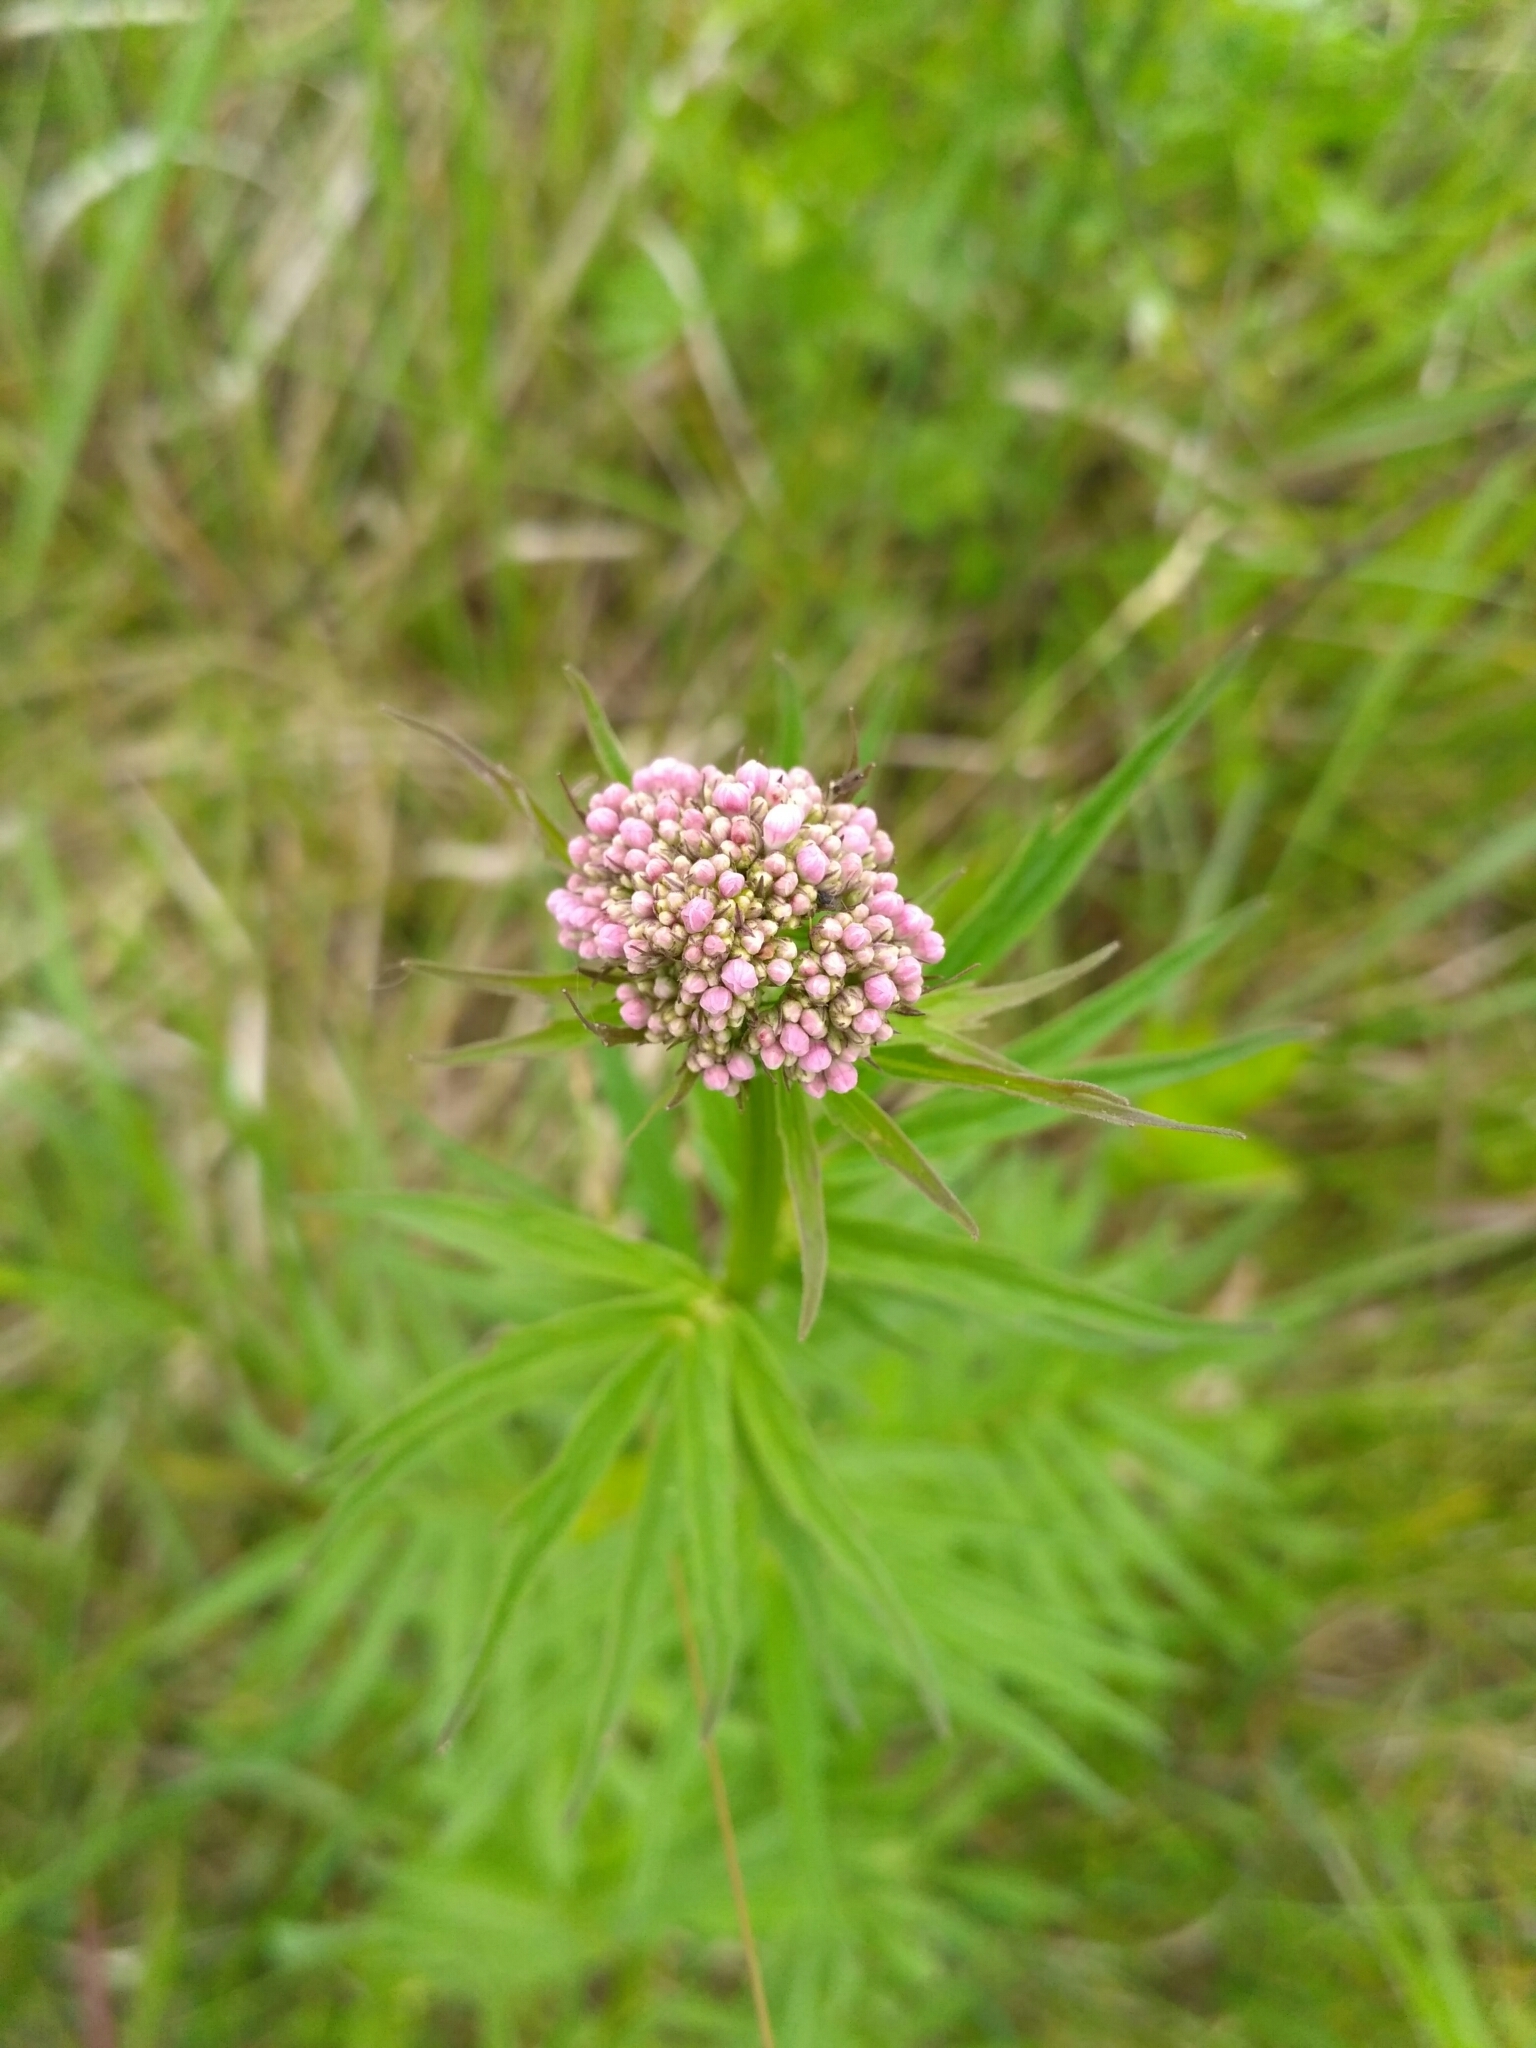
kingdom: Plantae
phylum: Tracheophyta
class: Magnoliopsida
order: Dipsacales
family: Caprifoliaceae
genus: Valeriana
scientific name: Valeriana officinalis
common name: Common valerian
